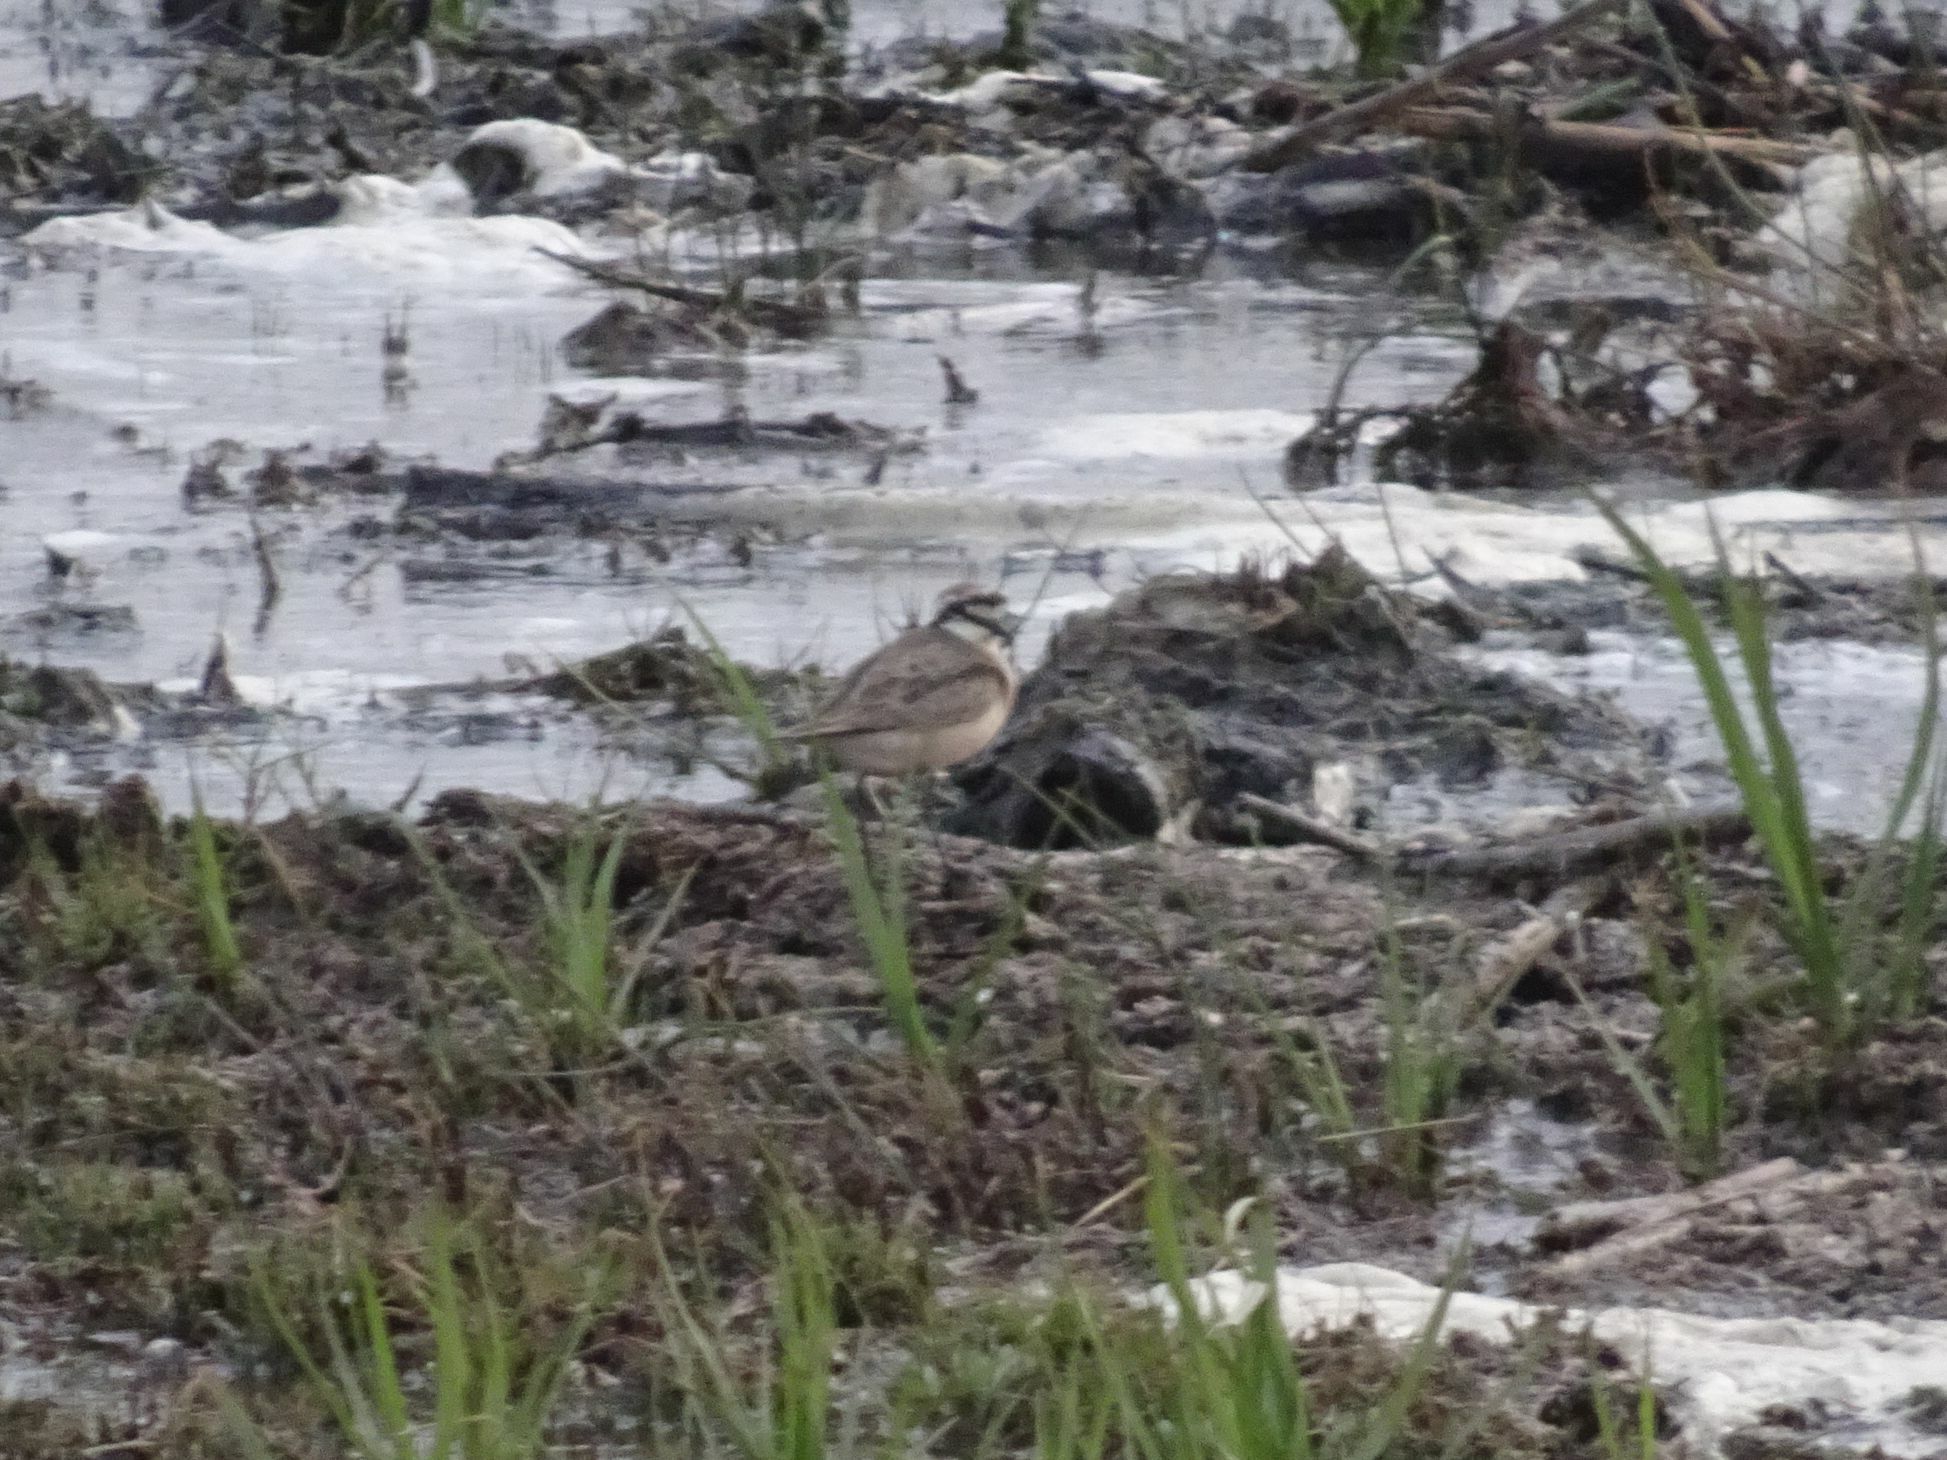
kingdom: Animalia
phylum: Chordata
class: Aves
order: Charadriiformes
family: Charadriidae
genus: Anarhynchus
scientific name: Anarhynchus
